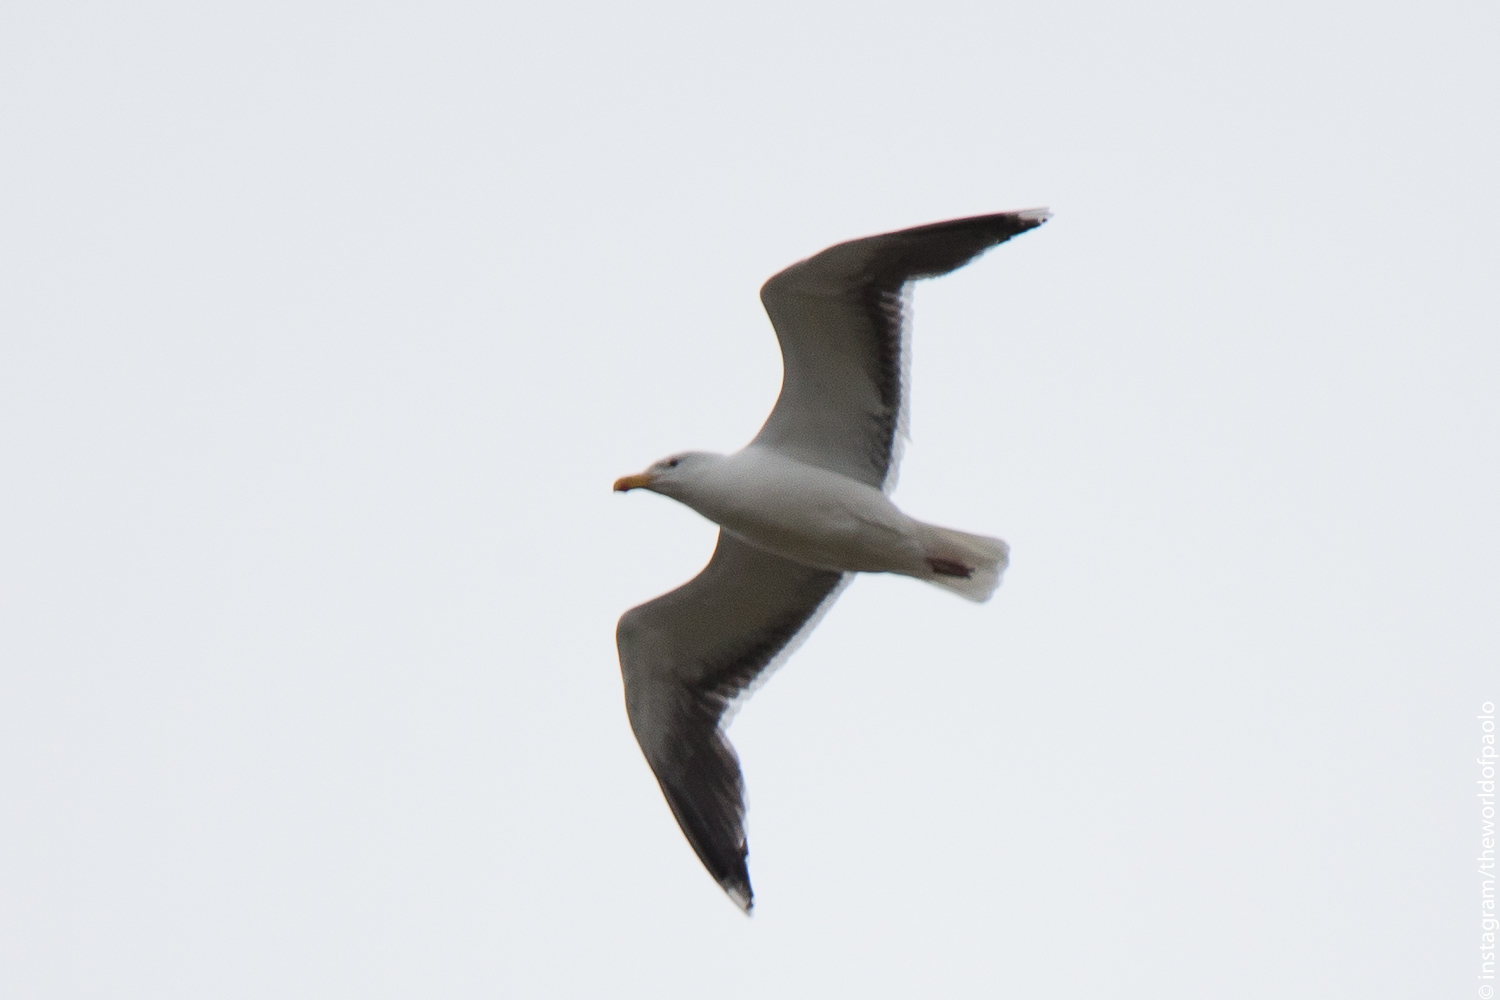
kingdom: Animalia
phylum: Chordata
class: Aves
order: Charadriiformes
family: Laridae
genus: Larus
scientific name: Larus marinus
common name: Great black-backed gull
